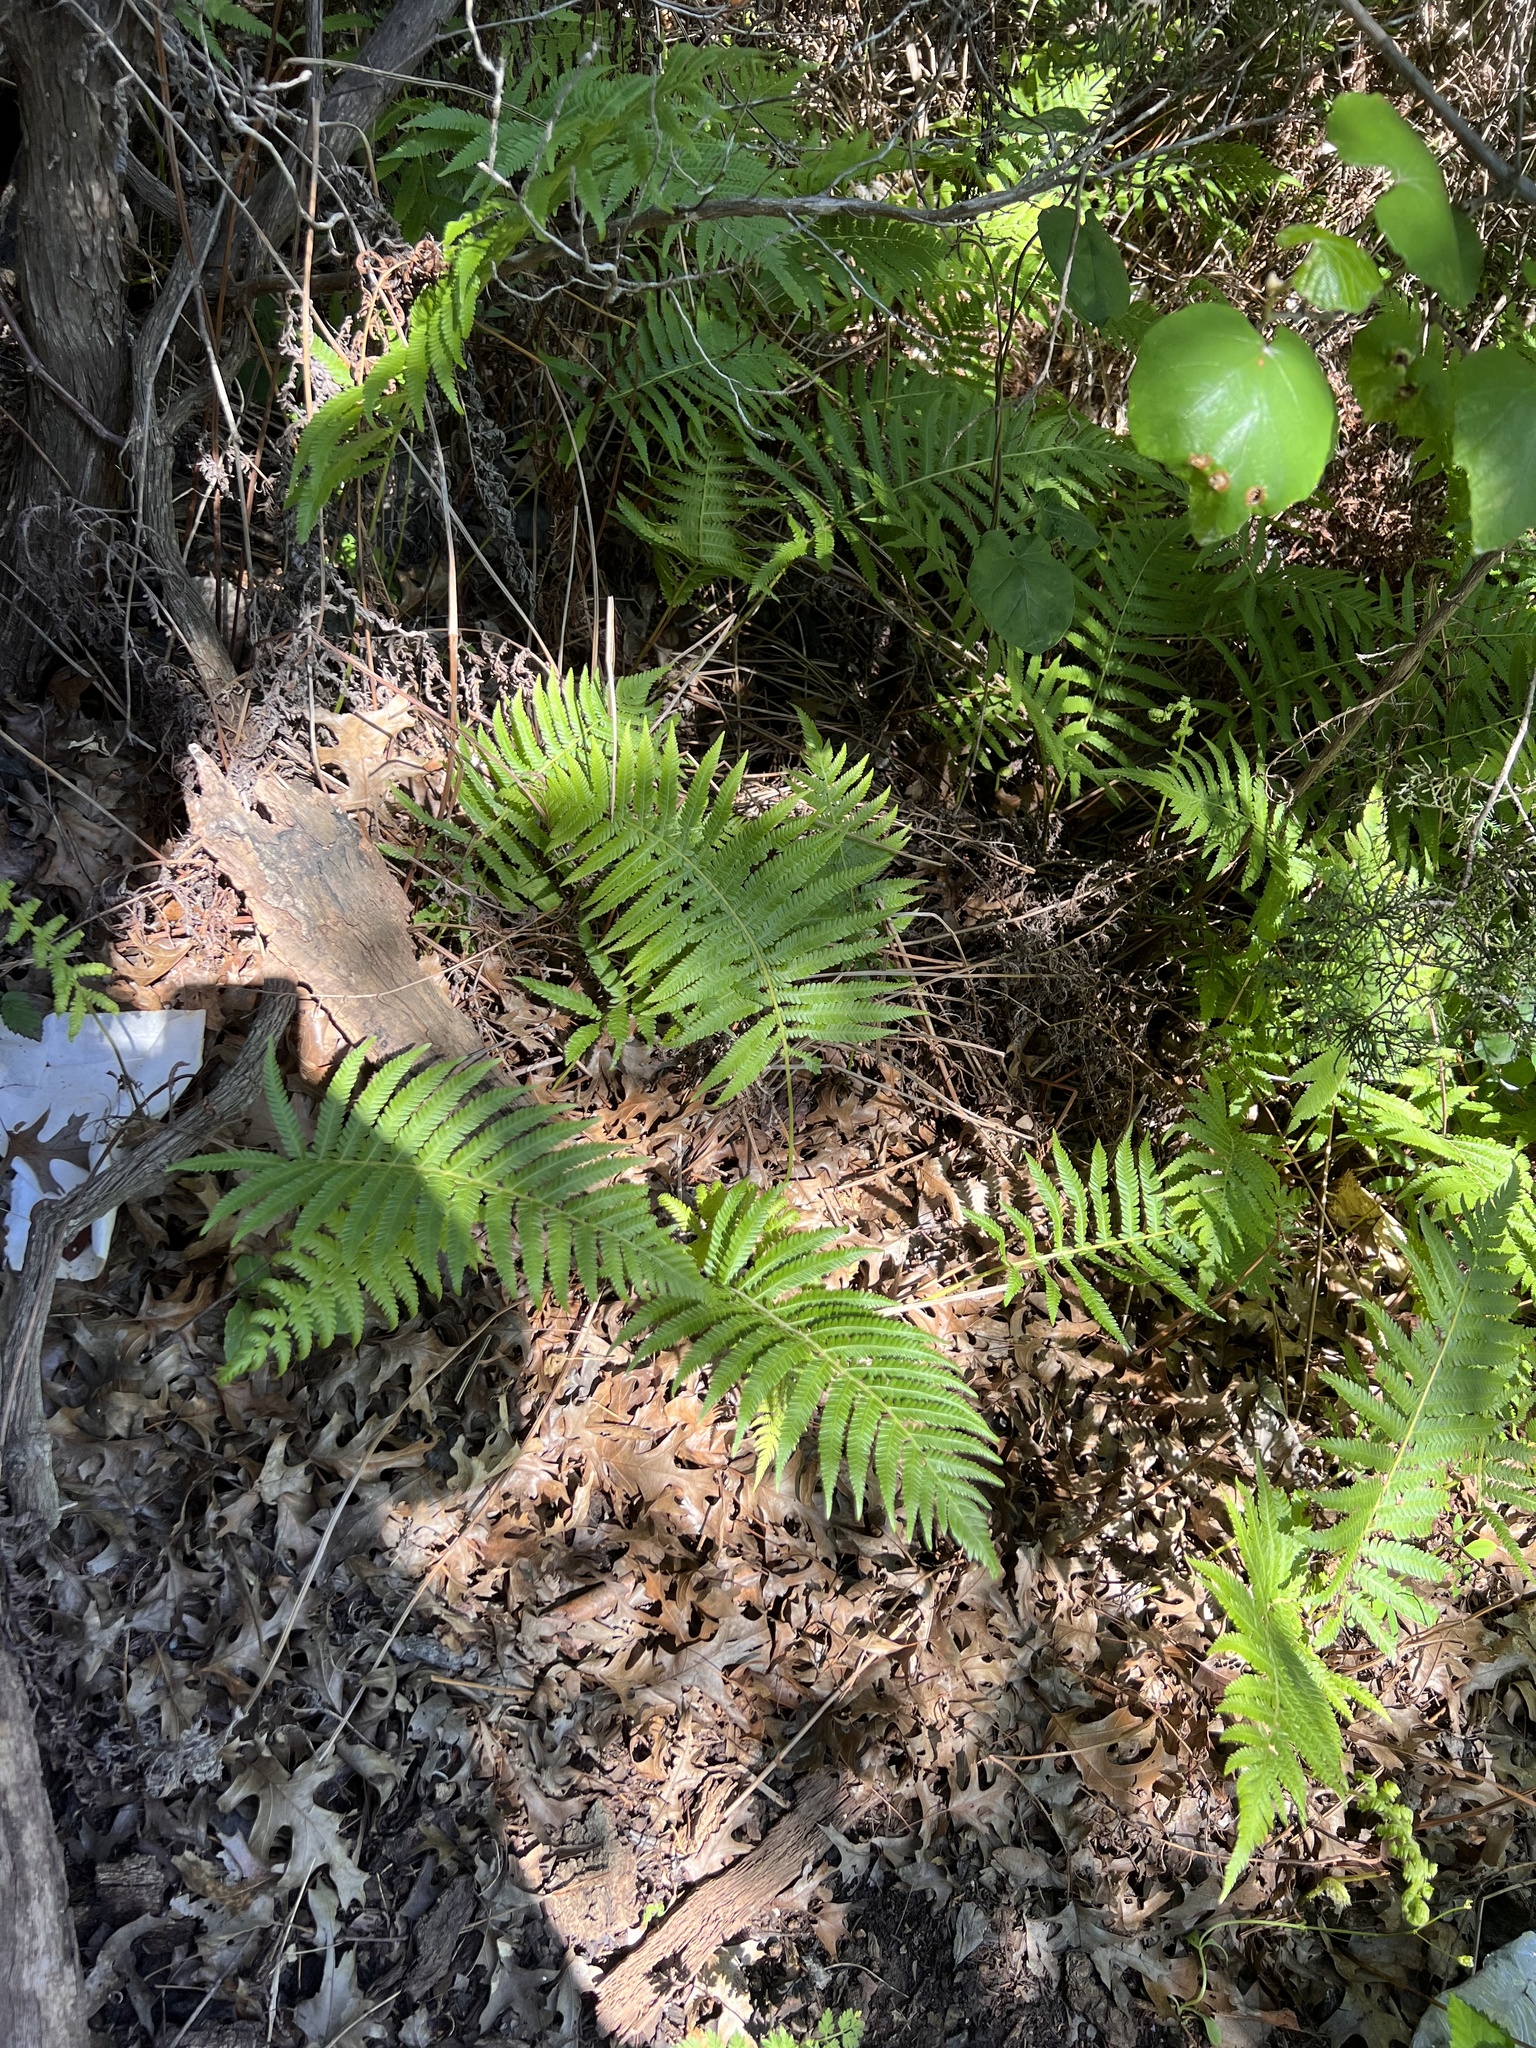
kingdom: Plantae
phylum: Tracheophyta
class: Polypodiopsida
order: Polypodiales
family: Thelypteridaceae
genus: Pelazoneuron
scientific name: Pelazoneuron ovatum
